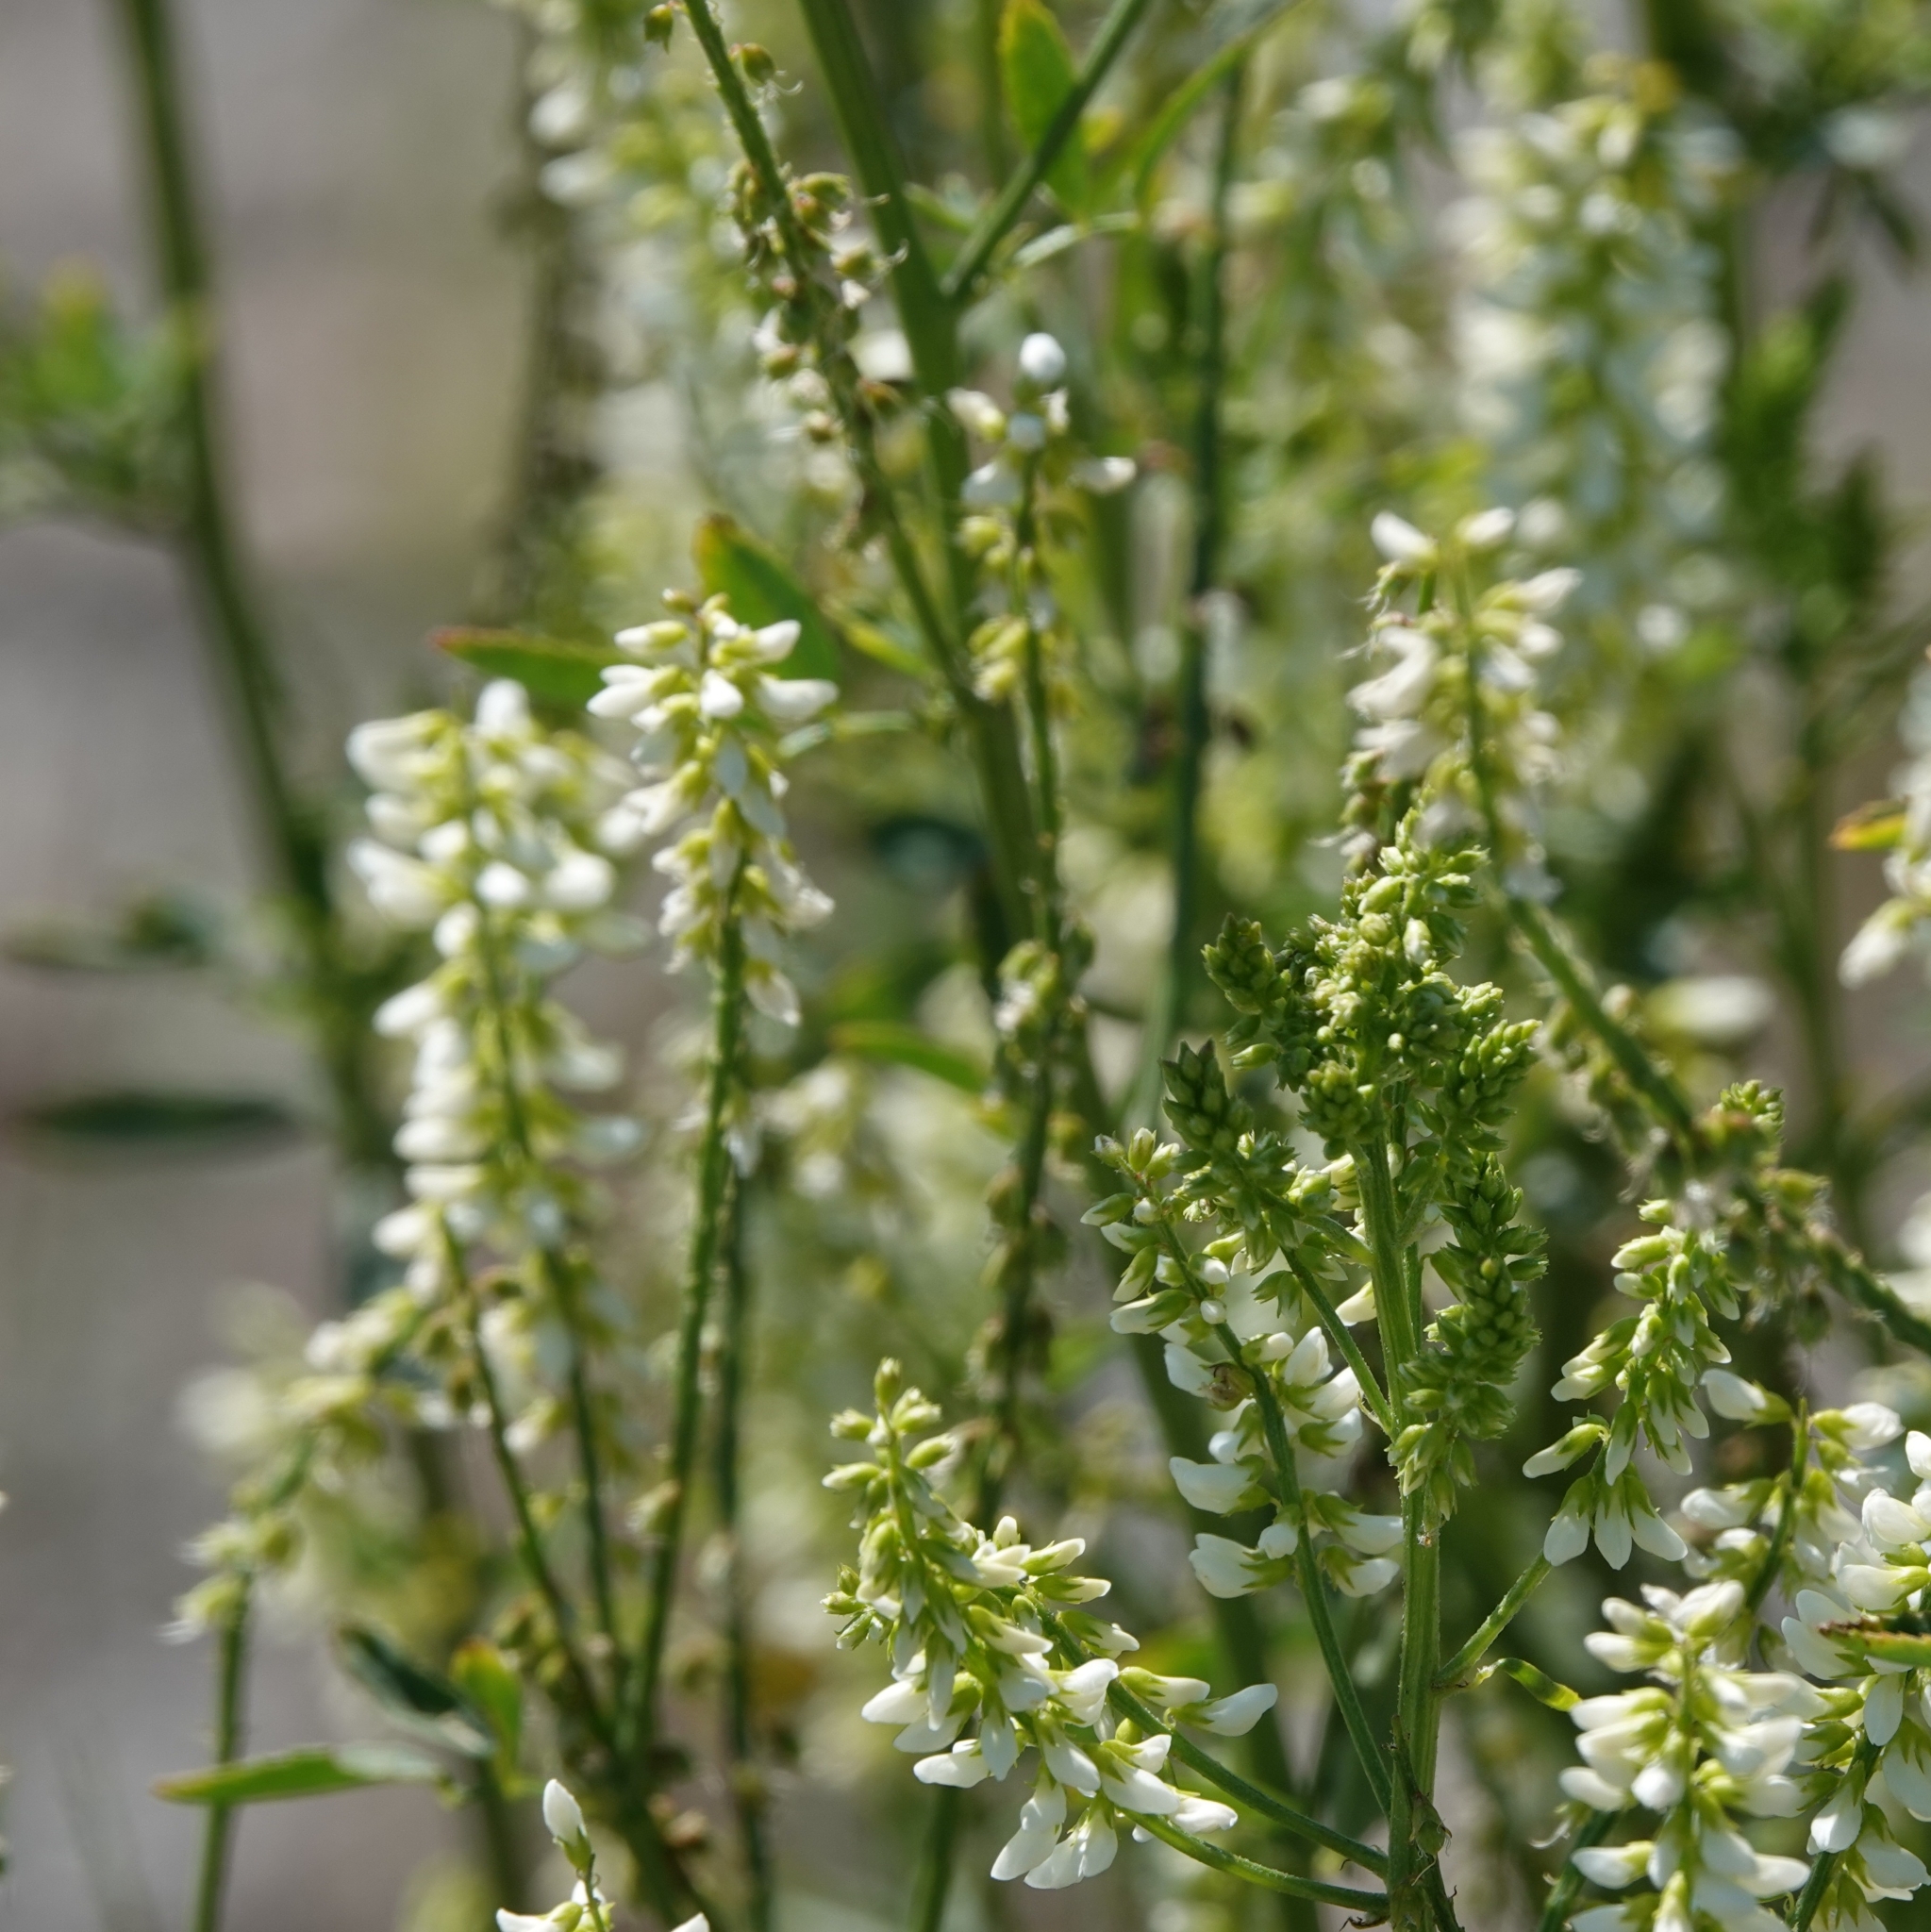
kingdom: Plantae
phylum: Tracheophyta
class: Magnoliopsida
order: Fabales
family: Fabaceae
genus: Melilotus
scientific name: Melilotus albus
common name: White melilot
